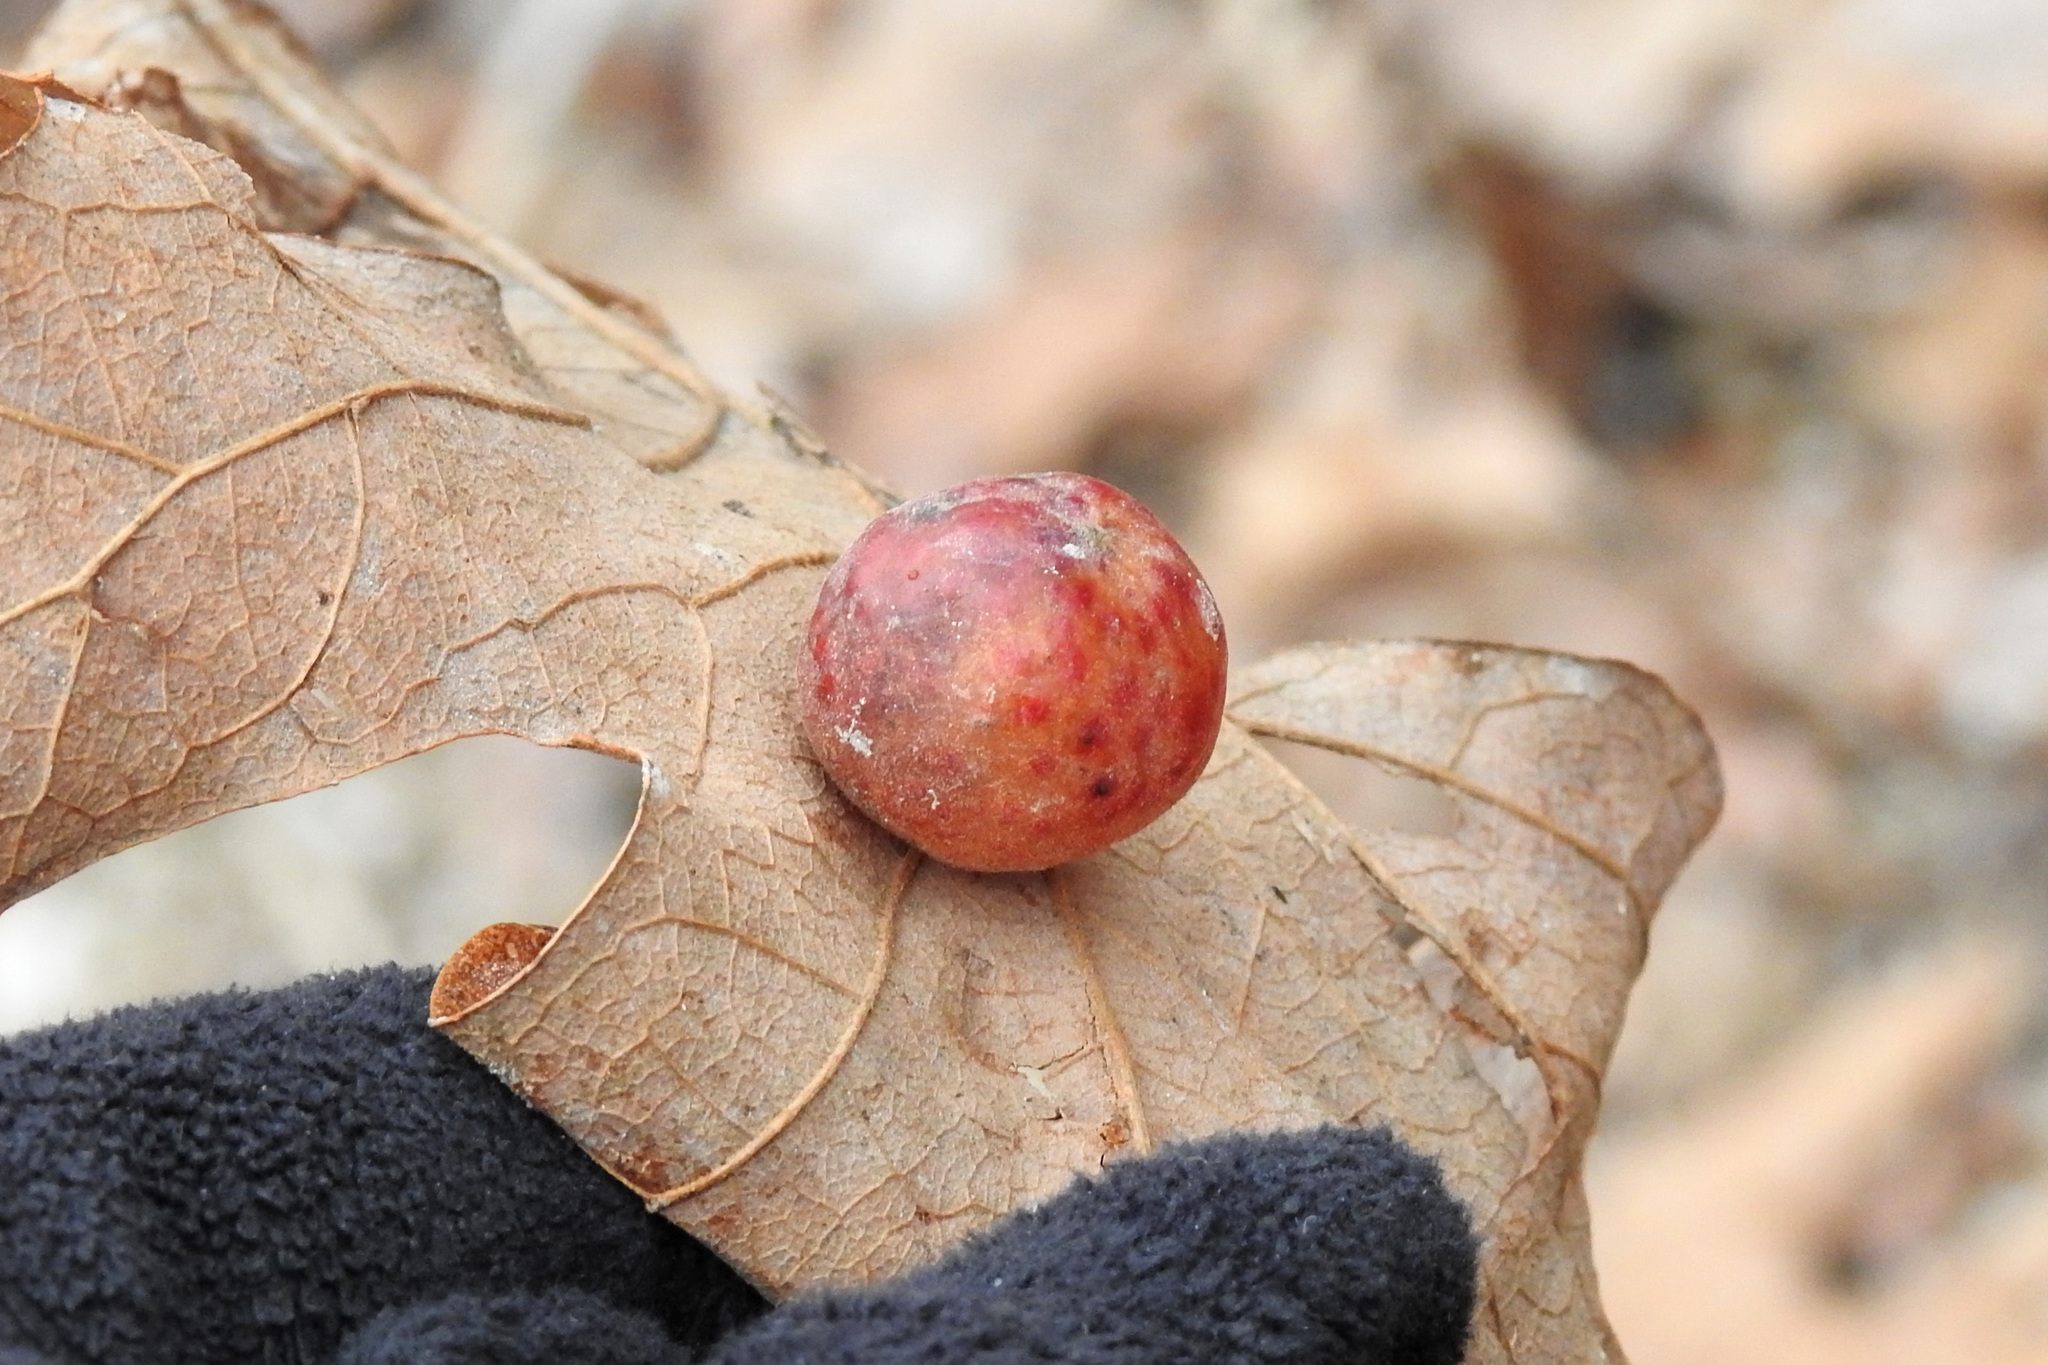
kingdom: Animalia
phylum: Arthropoda
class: Insecta
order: Hymenoptera
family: Cynipidae
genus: Atrusca
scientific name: Atrusca
